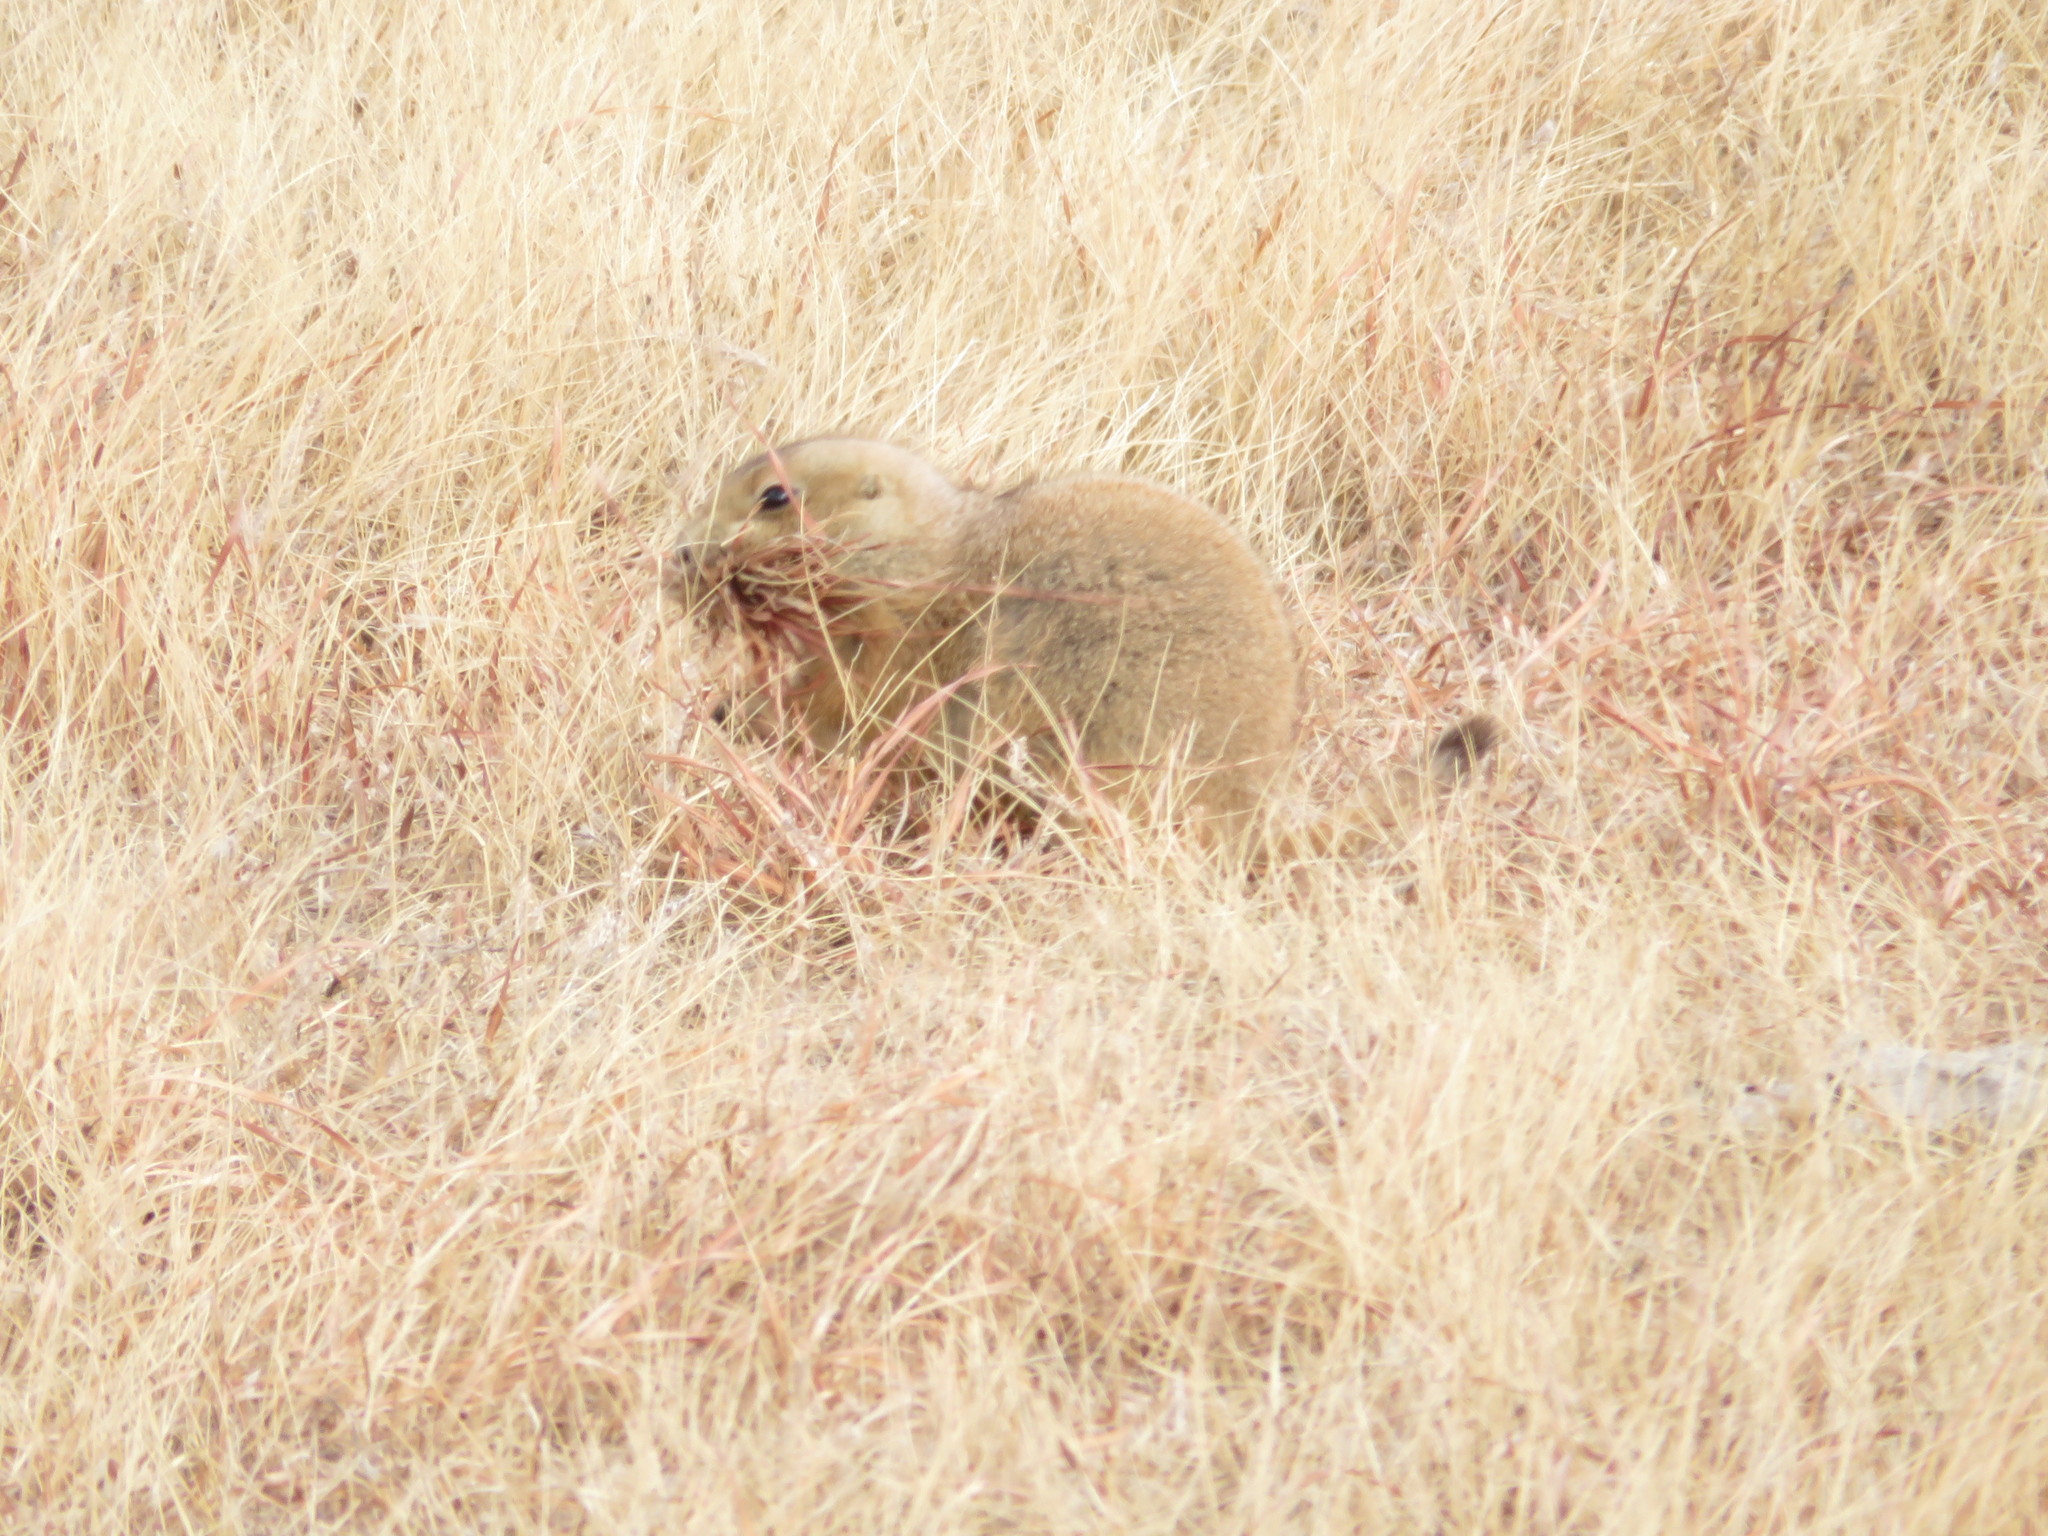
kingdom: Animalia
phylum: Chordata
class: Mammalia
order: Rodentia
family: Sciuridae
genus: Cynomys
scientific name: Cynomys ludovicianus
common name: Black-tailed prairie dog
